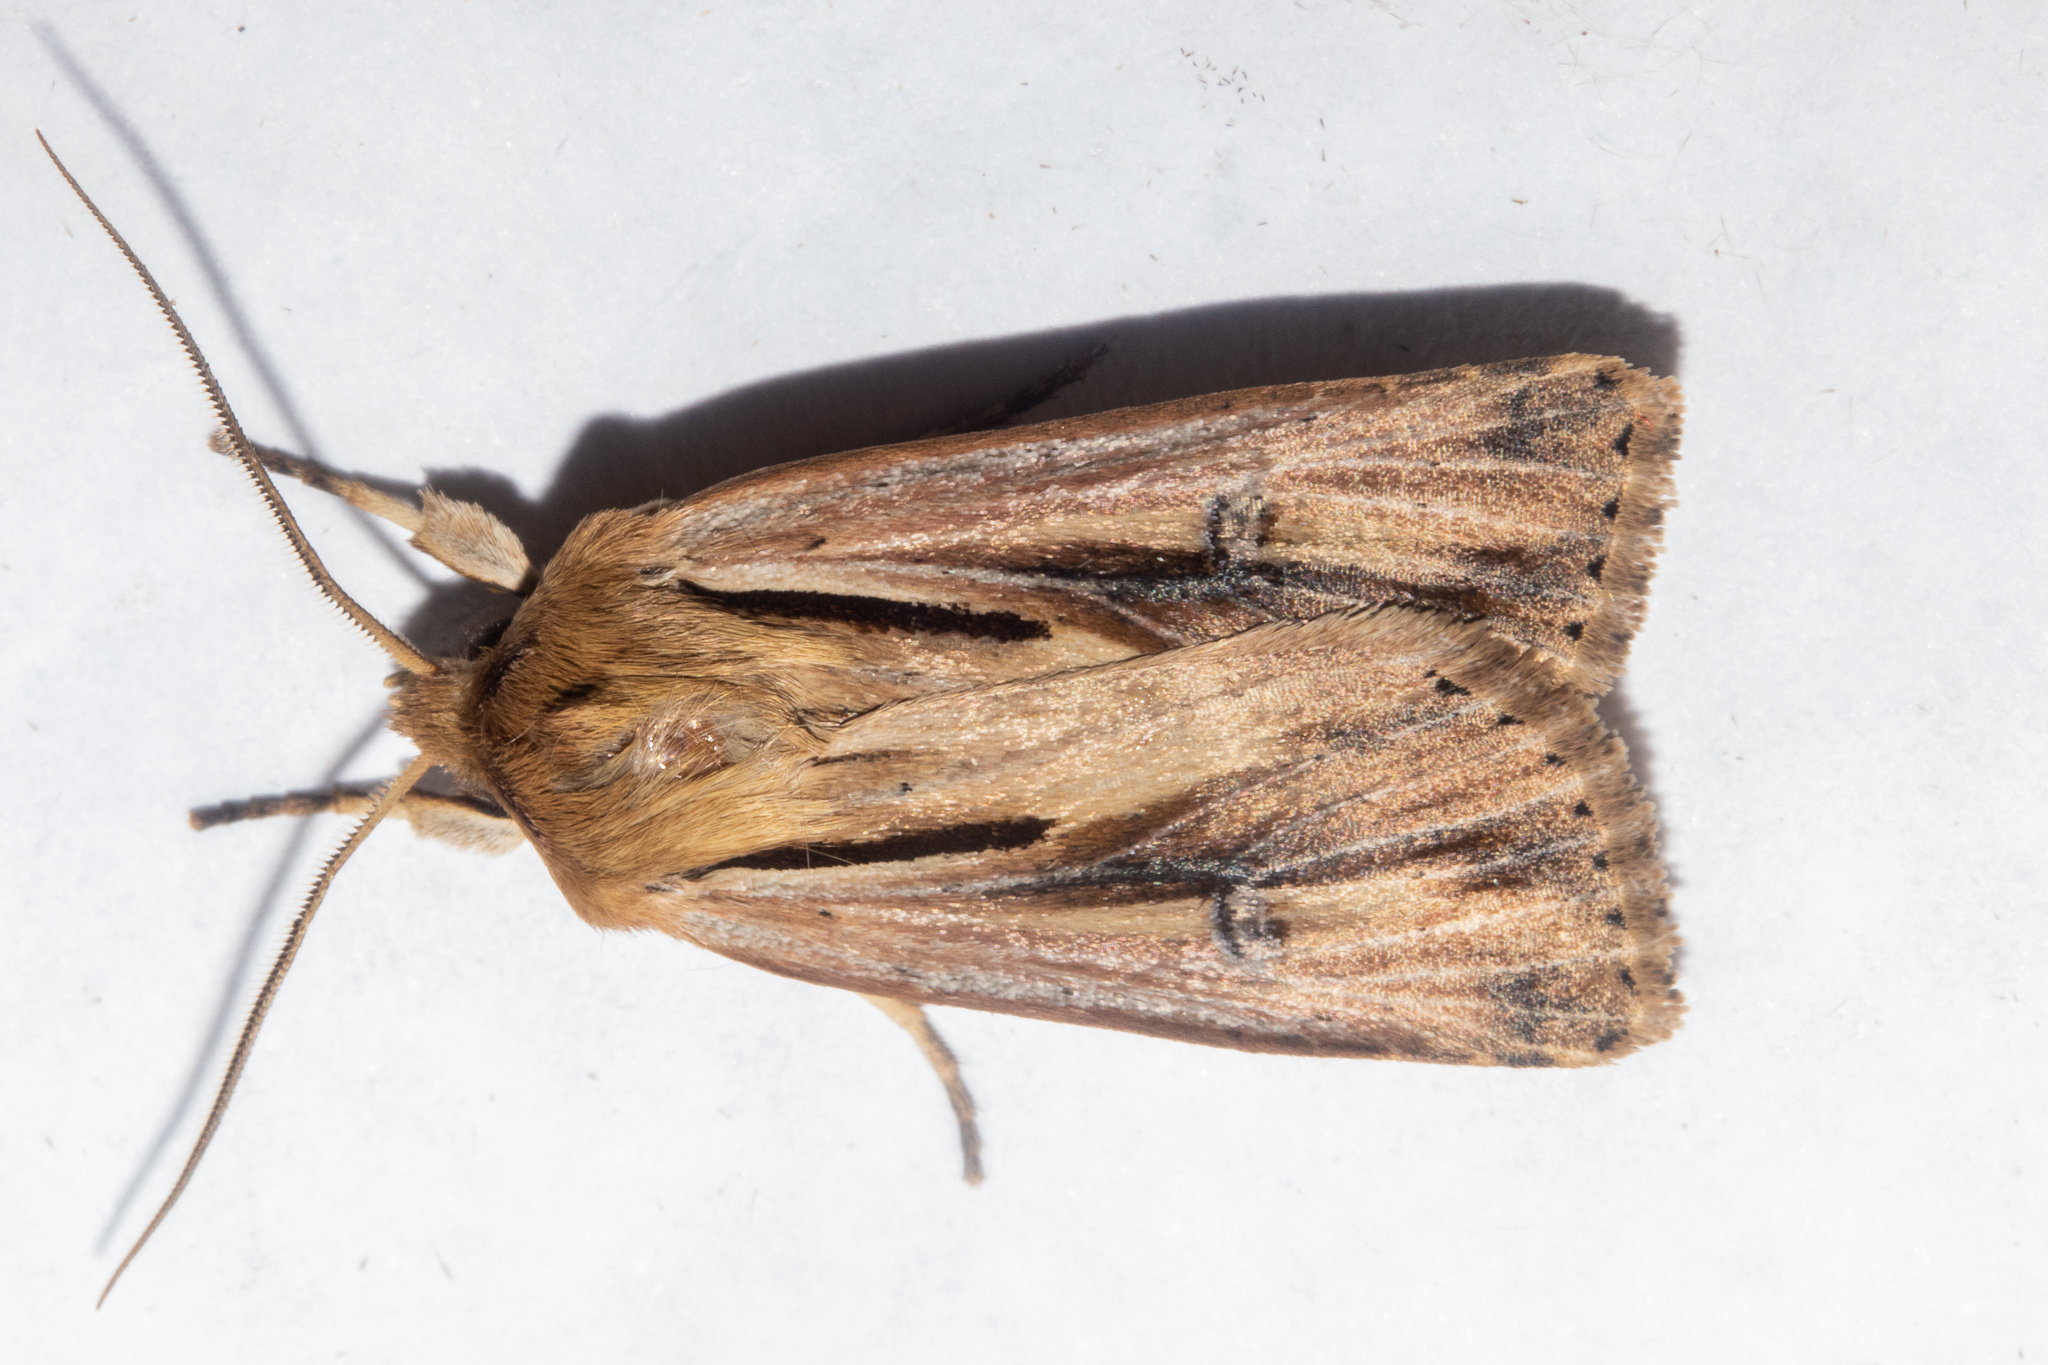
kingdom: Animalia
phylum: Arthropoda
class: Insecta
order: Lepidoptera
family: Noctuidae
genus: Ichneutica
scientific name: Ichneutica propria
